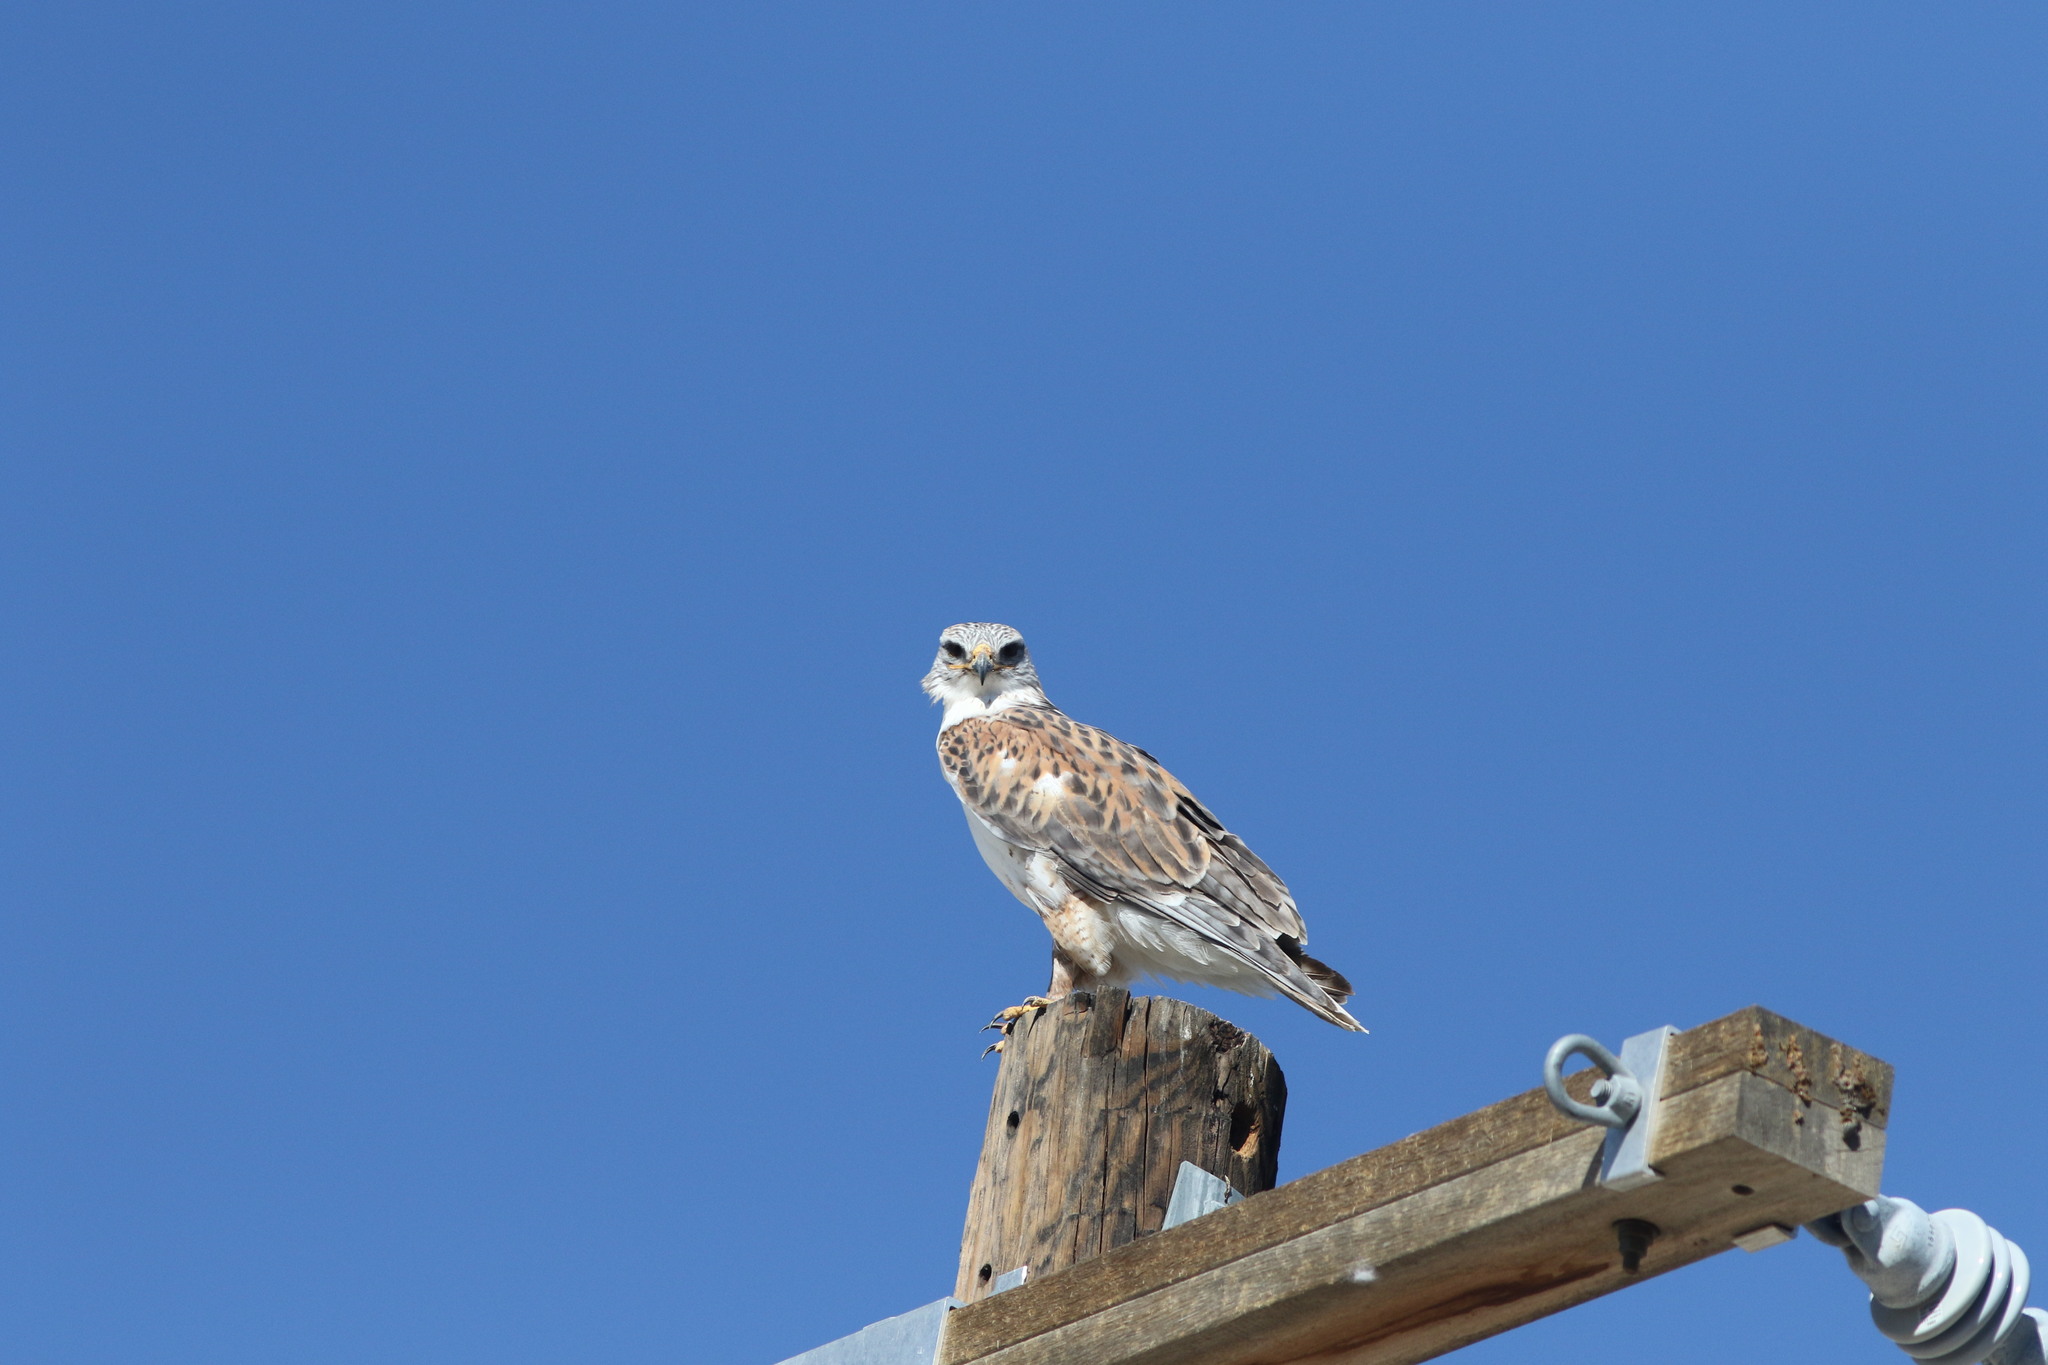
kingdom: Animalia
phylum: Chordata
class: Aves
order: Accipitriformes
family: Accipitridae
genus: Buteo
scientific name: Buteo regalis
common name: Ferruginous hawk
